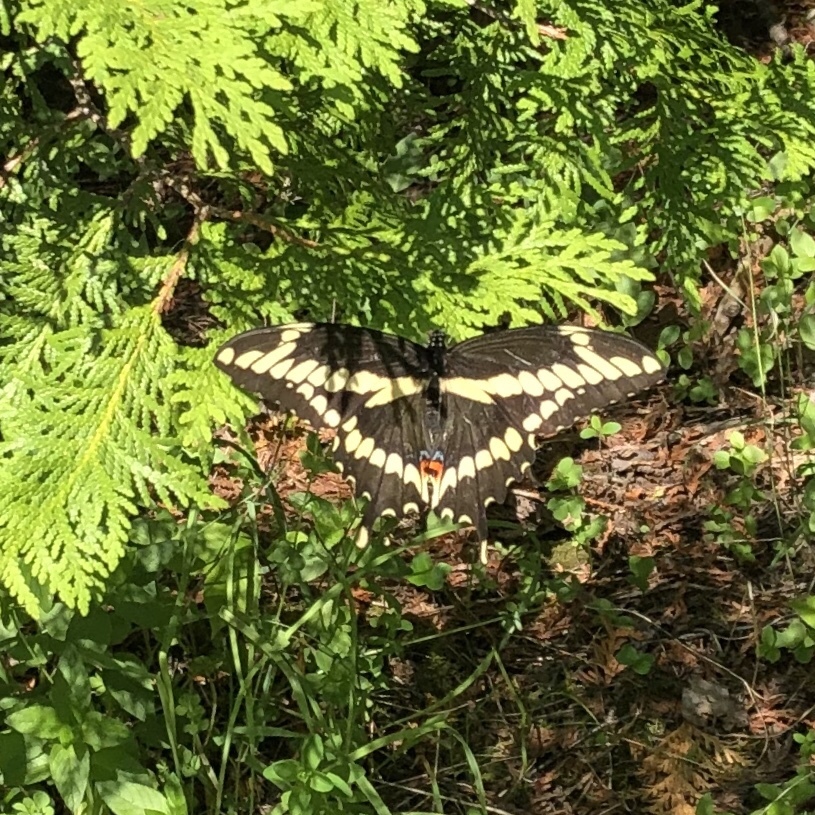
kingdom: Animalia
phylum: Arthropoda
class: Insecta
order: Lepidoptera
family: Papilionidae
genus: Papilio
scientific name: Papilio cresphontes
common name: Giant swallowtail
